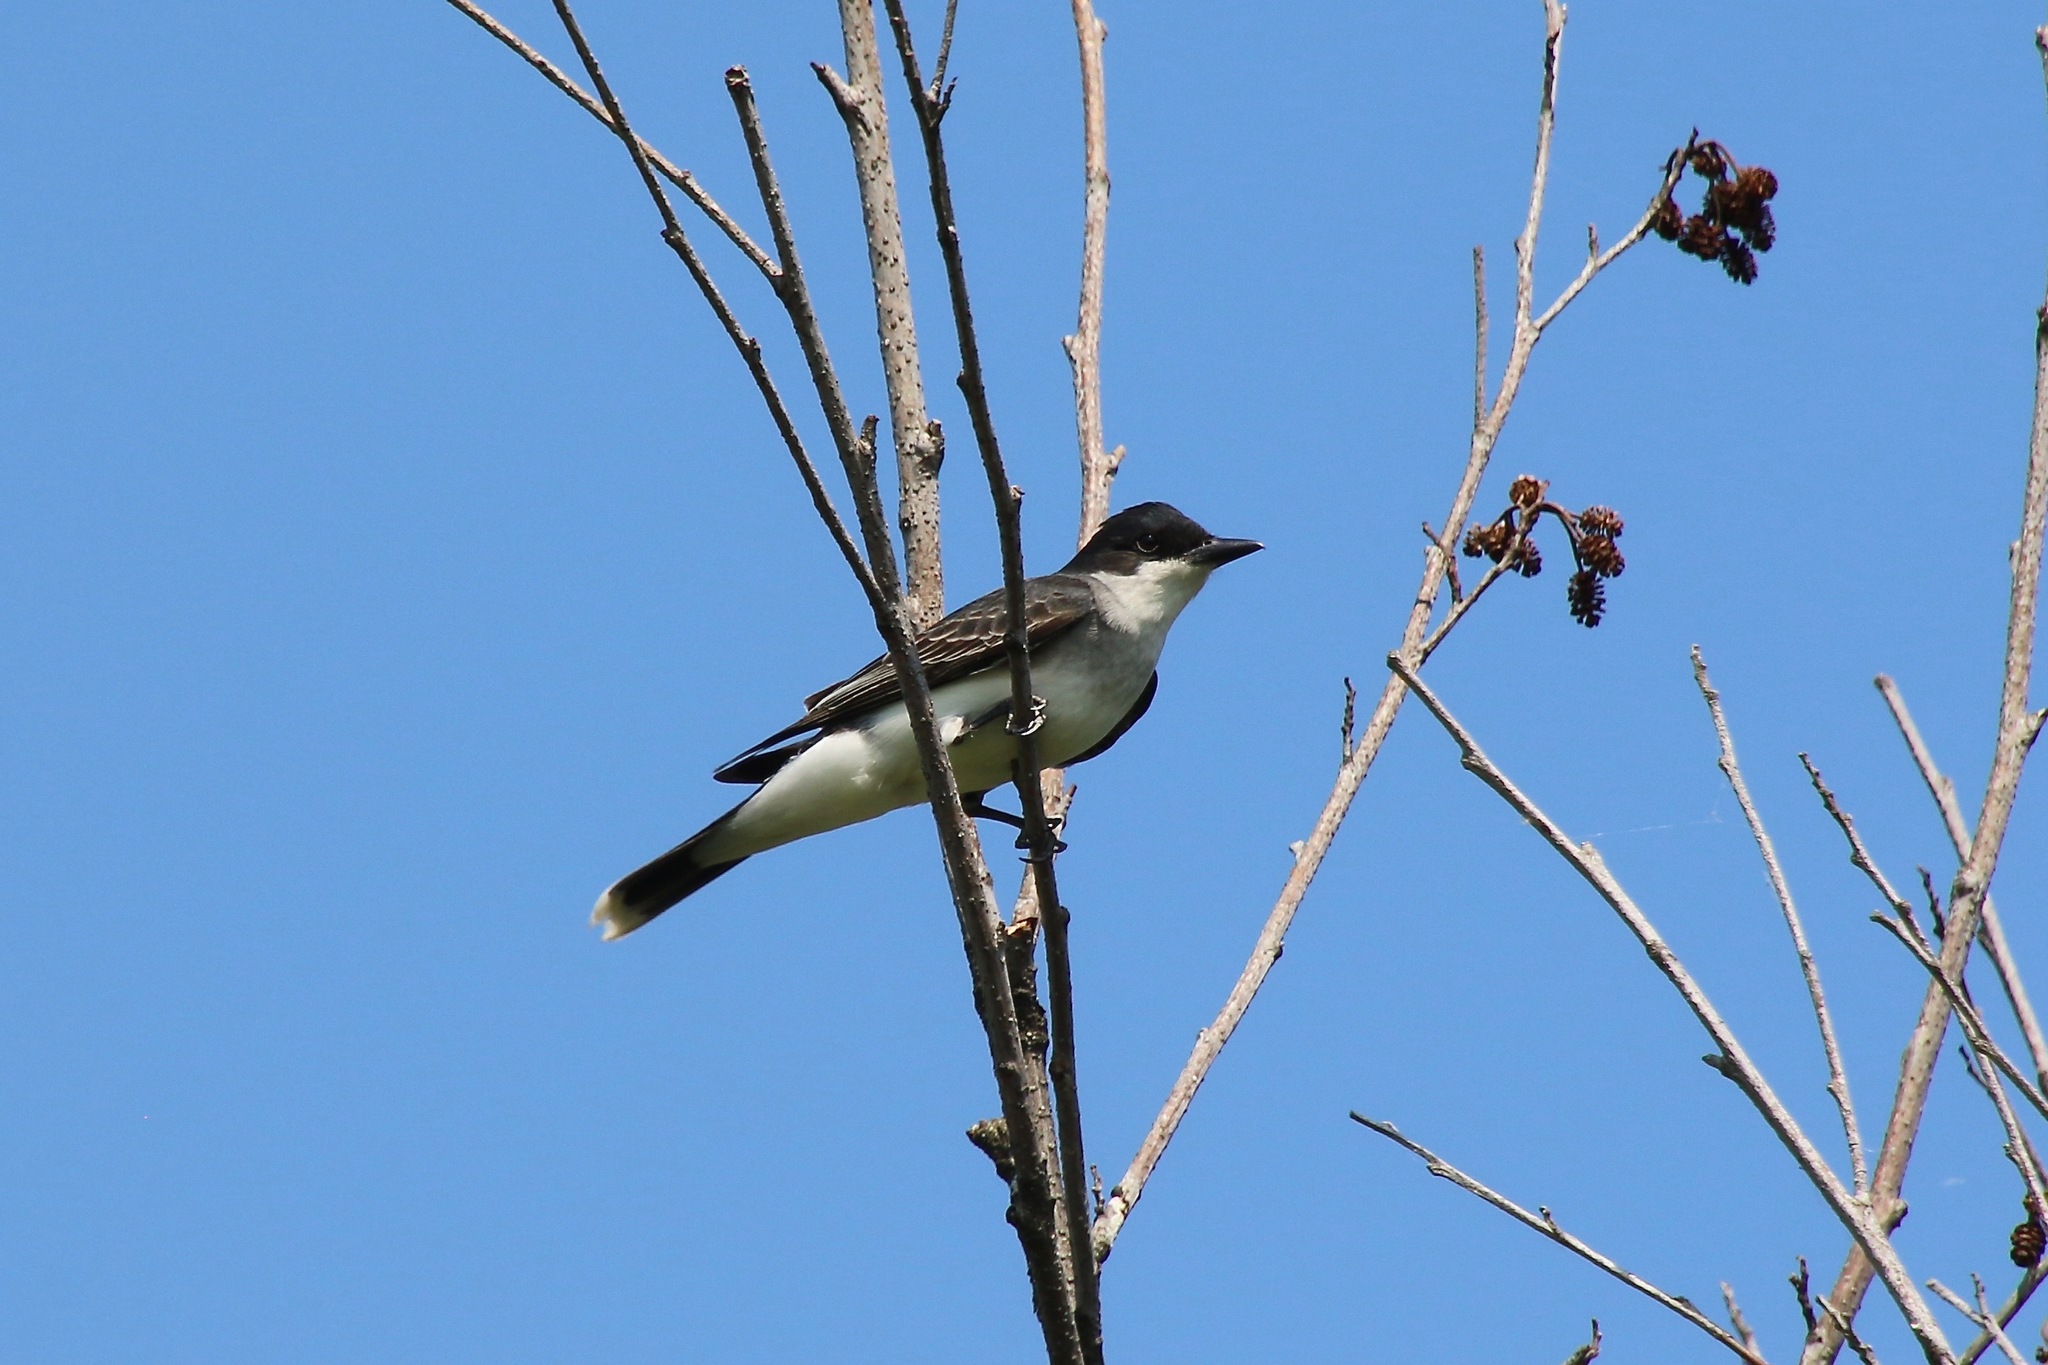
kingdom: Animalia
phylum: Chordata
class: Aves
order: Passeriformes
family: Tyrannidae
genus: Tyrannus
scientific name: Tyrannus tyrannus
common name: Eastern kingbird
